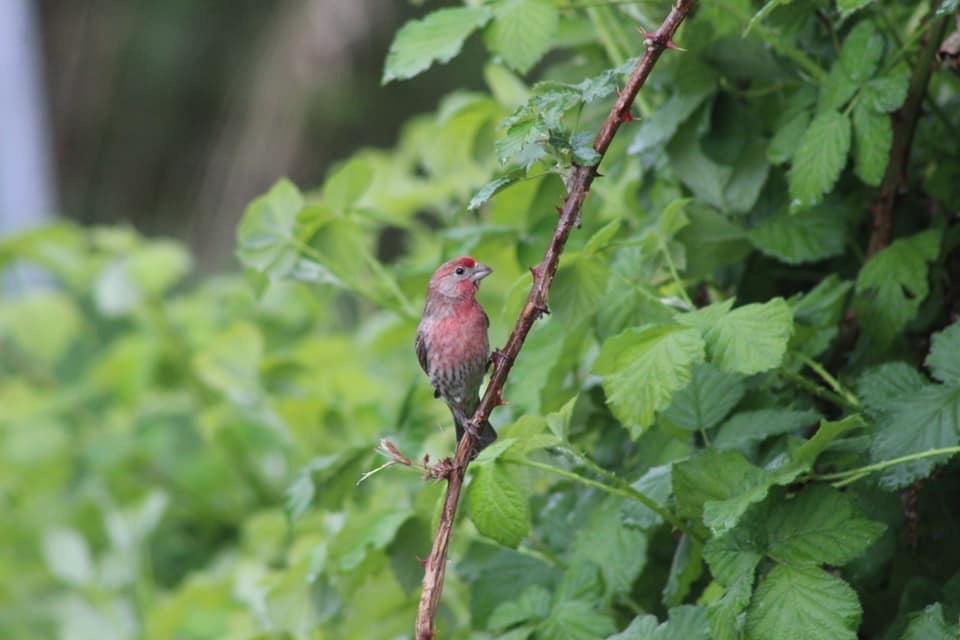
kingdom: Animalia
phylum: Chordata
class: Aves
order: Passeriformes
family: Fringillidae
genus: Haemorhous
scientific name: Haemorhous mexicanus
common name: House finch
